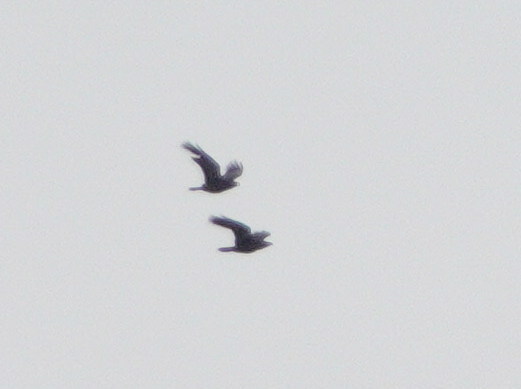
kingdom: Animalia
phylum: Chordata
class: Aves
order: Passeriformes
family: Corvidae
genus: Corvus
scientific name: Corvus corax
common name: Common raven
